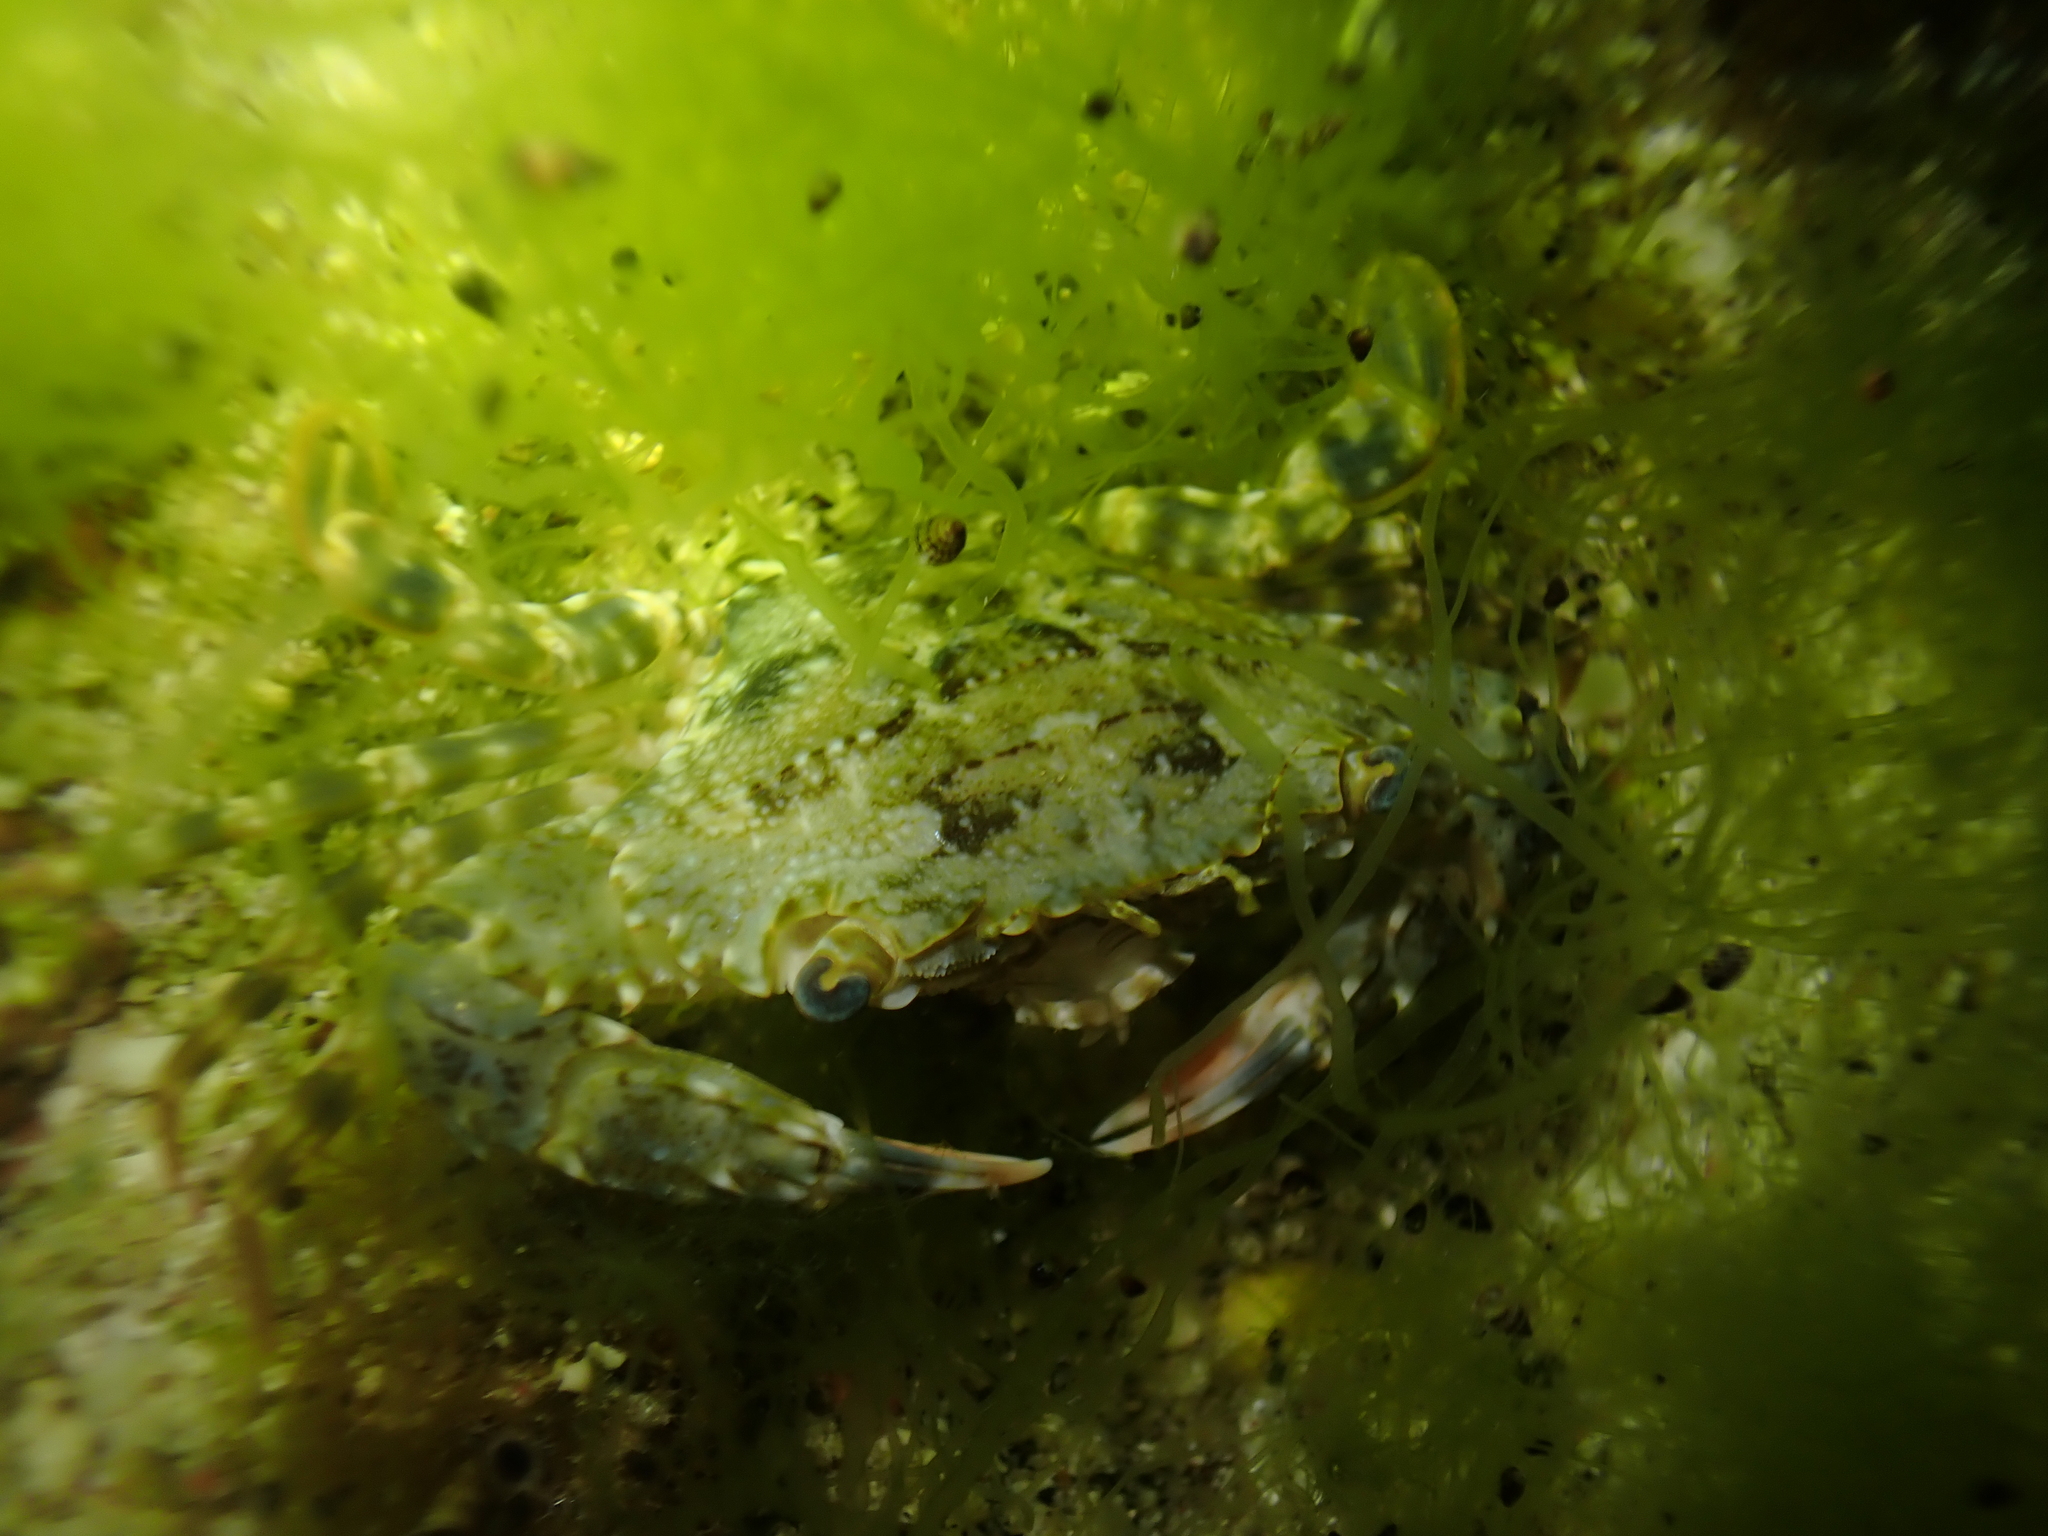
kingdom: Animalia
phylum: Arthropoda
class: Malacostraca
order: Decapoda
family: Portunidae
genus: Thalamita
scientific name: Thalamita holthuisi
